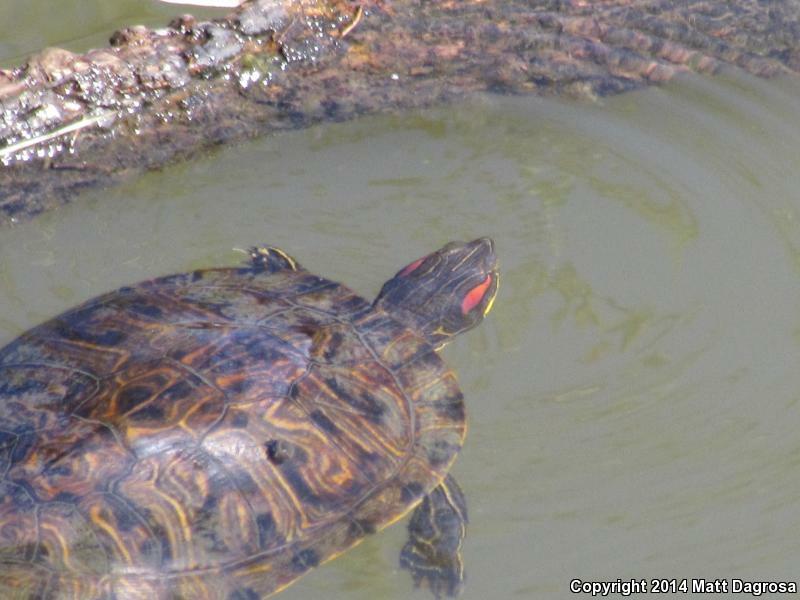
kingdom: Animalia
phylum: Chordata
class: Testudines
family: Emydidae
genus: Trachemys
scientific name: Trachemys scripta
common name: Slider
